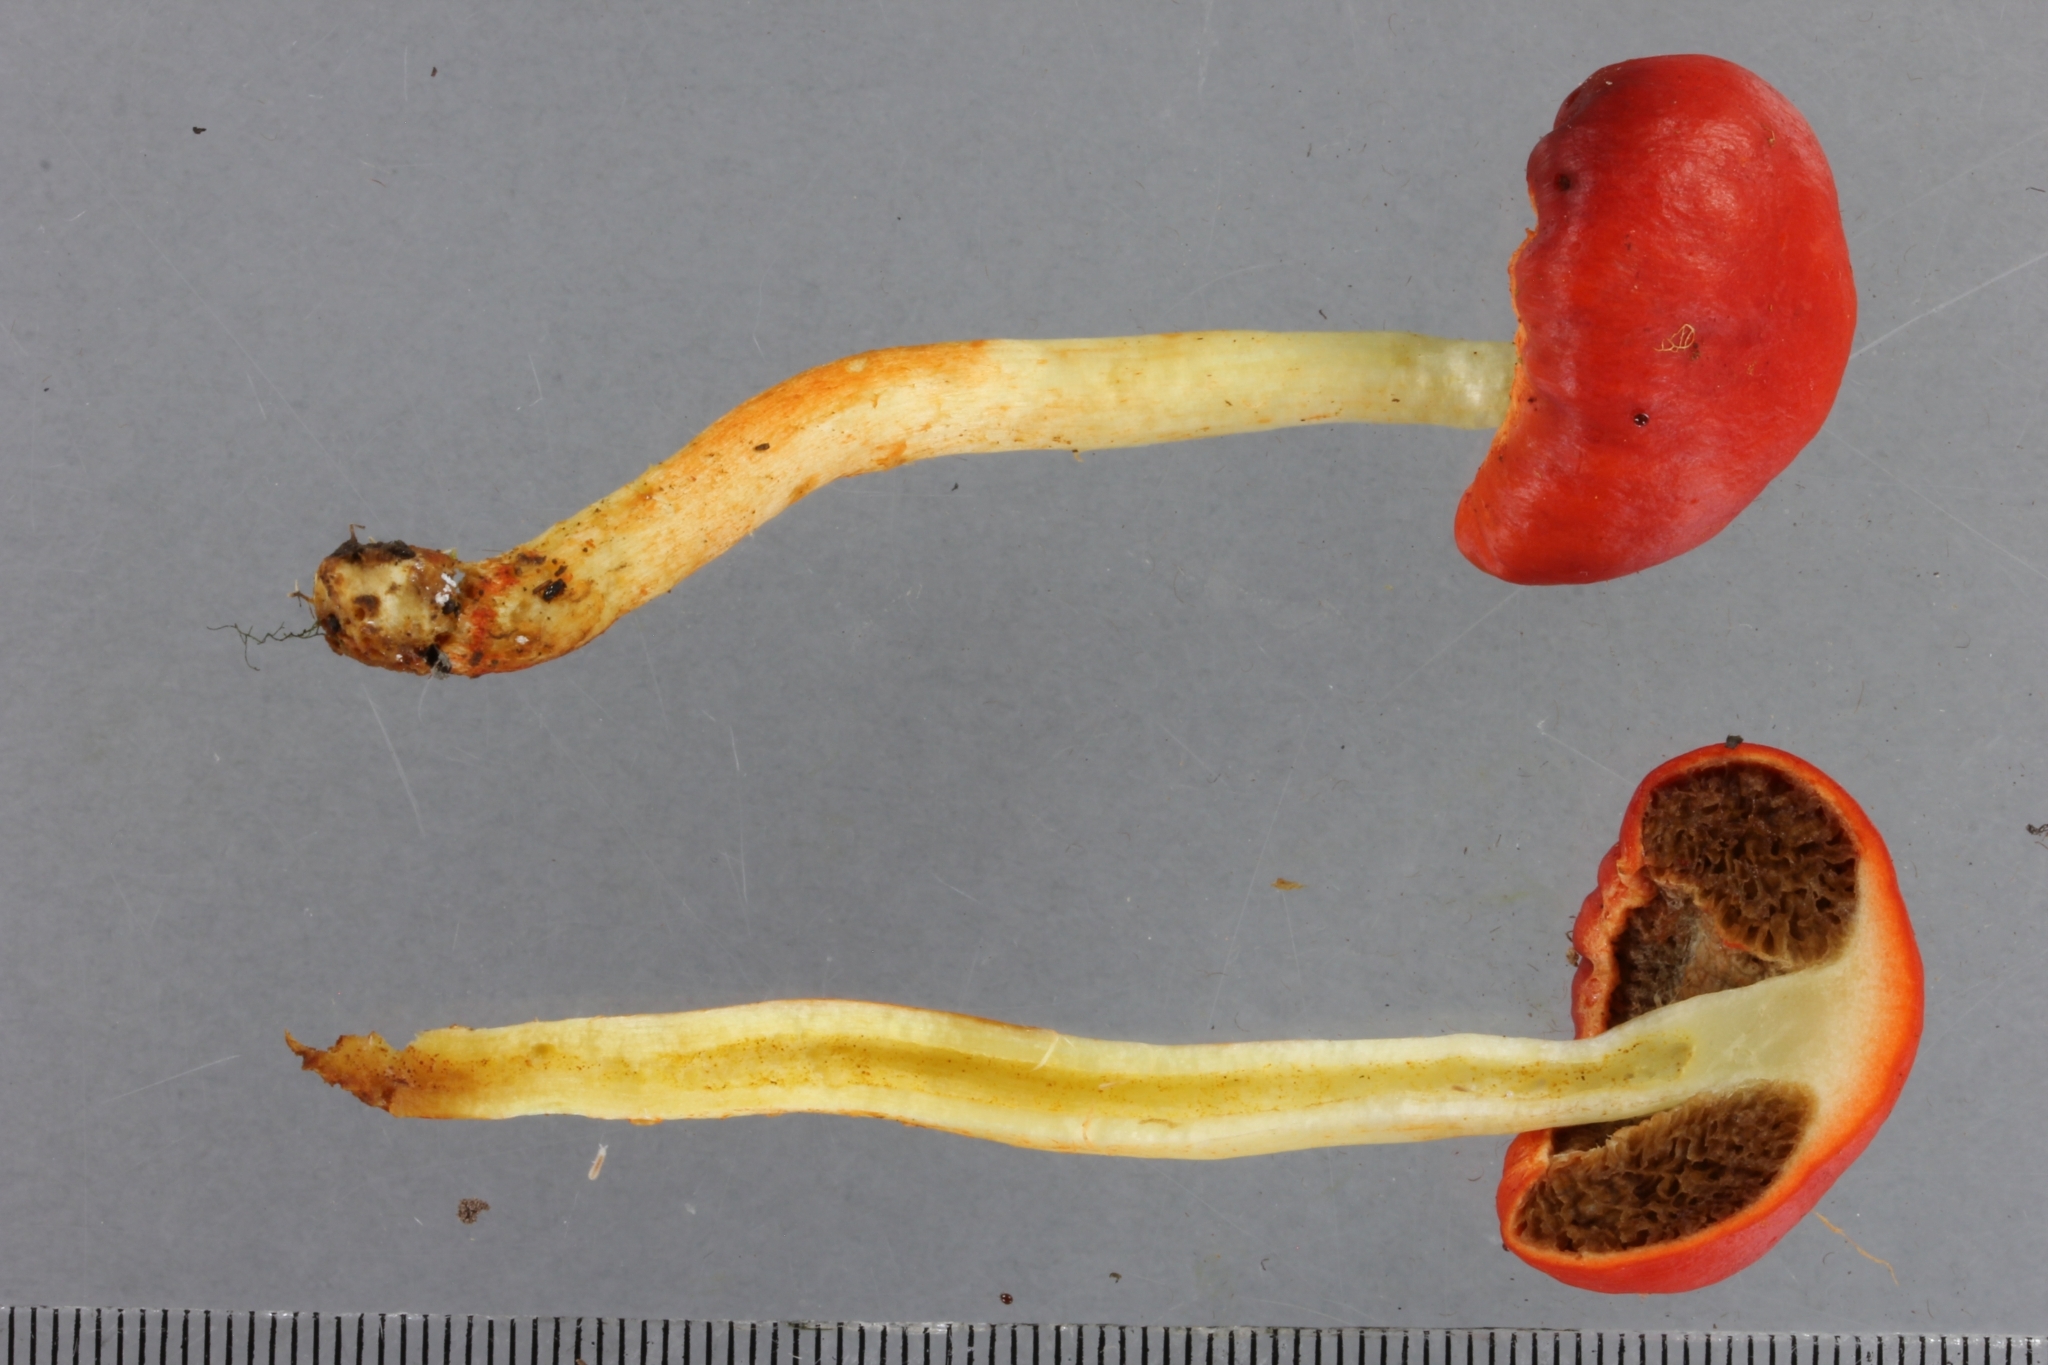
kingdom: Fungi
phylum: Basidiomycota
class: Agaricomycetes
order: Agaricales
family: Strophariaceae
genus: Leratiomyces
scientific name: Leratiomyces erythrocephalus
